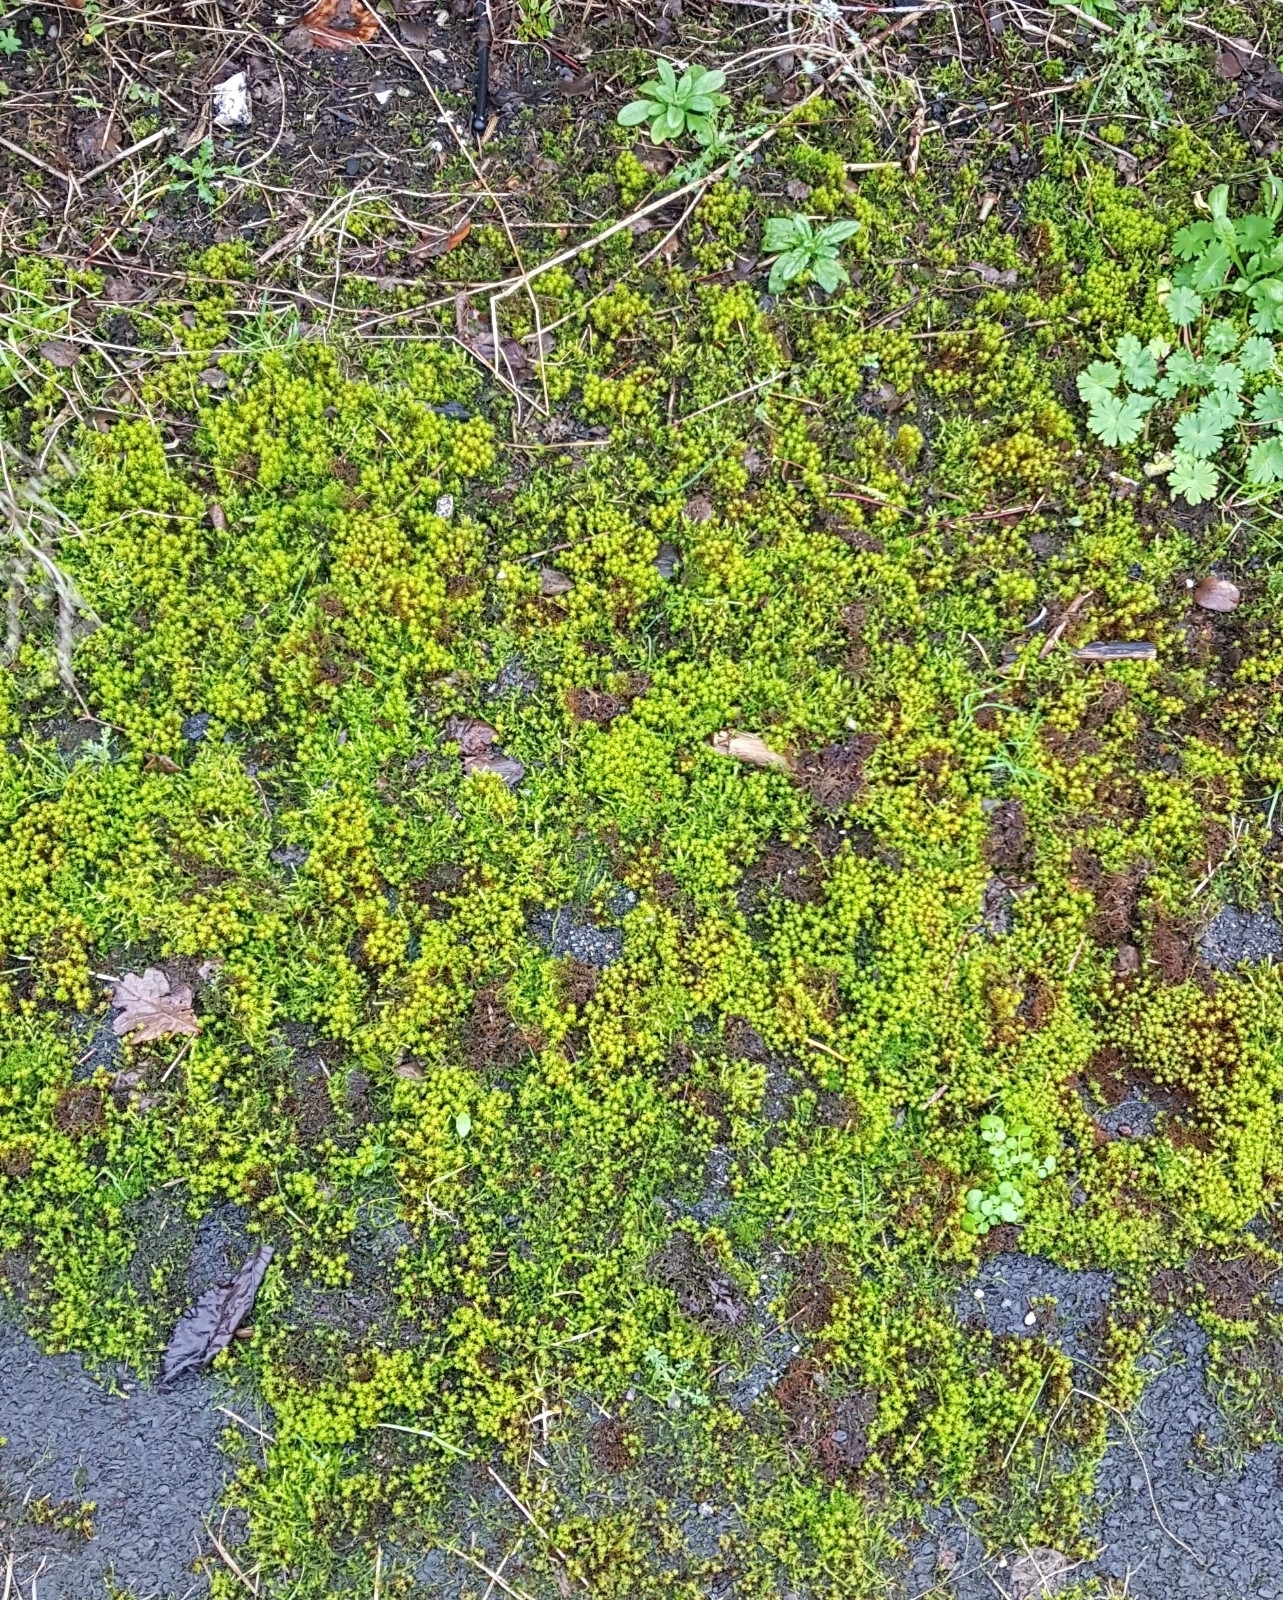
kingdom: Plantae
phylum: Bryophyta
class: Bryopsida
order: Pottiales
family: Pottiaceae
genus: Syntrichia
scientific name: Syntrichia ruralis
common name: Sidewalk screw moss
